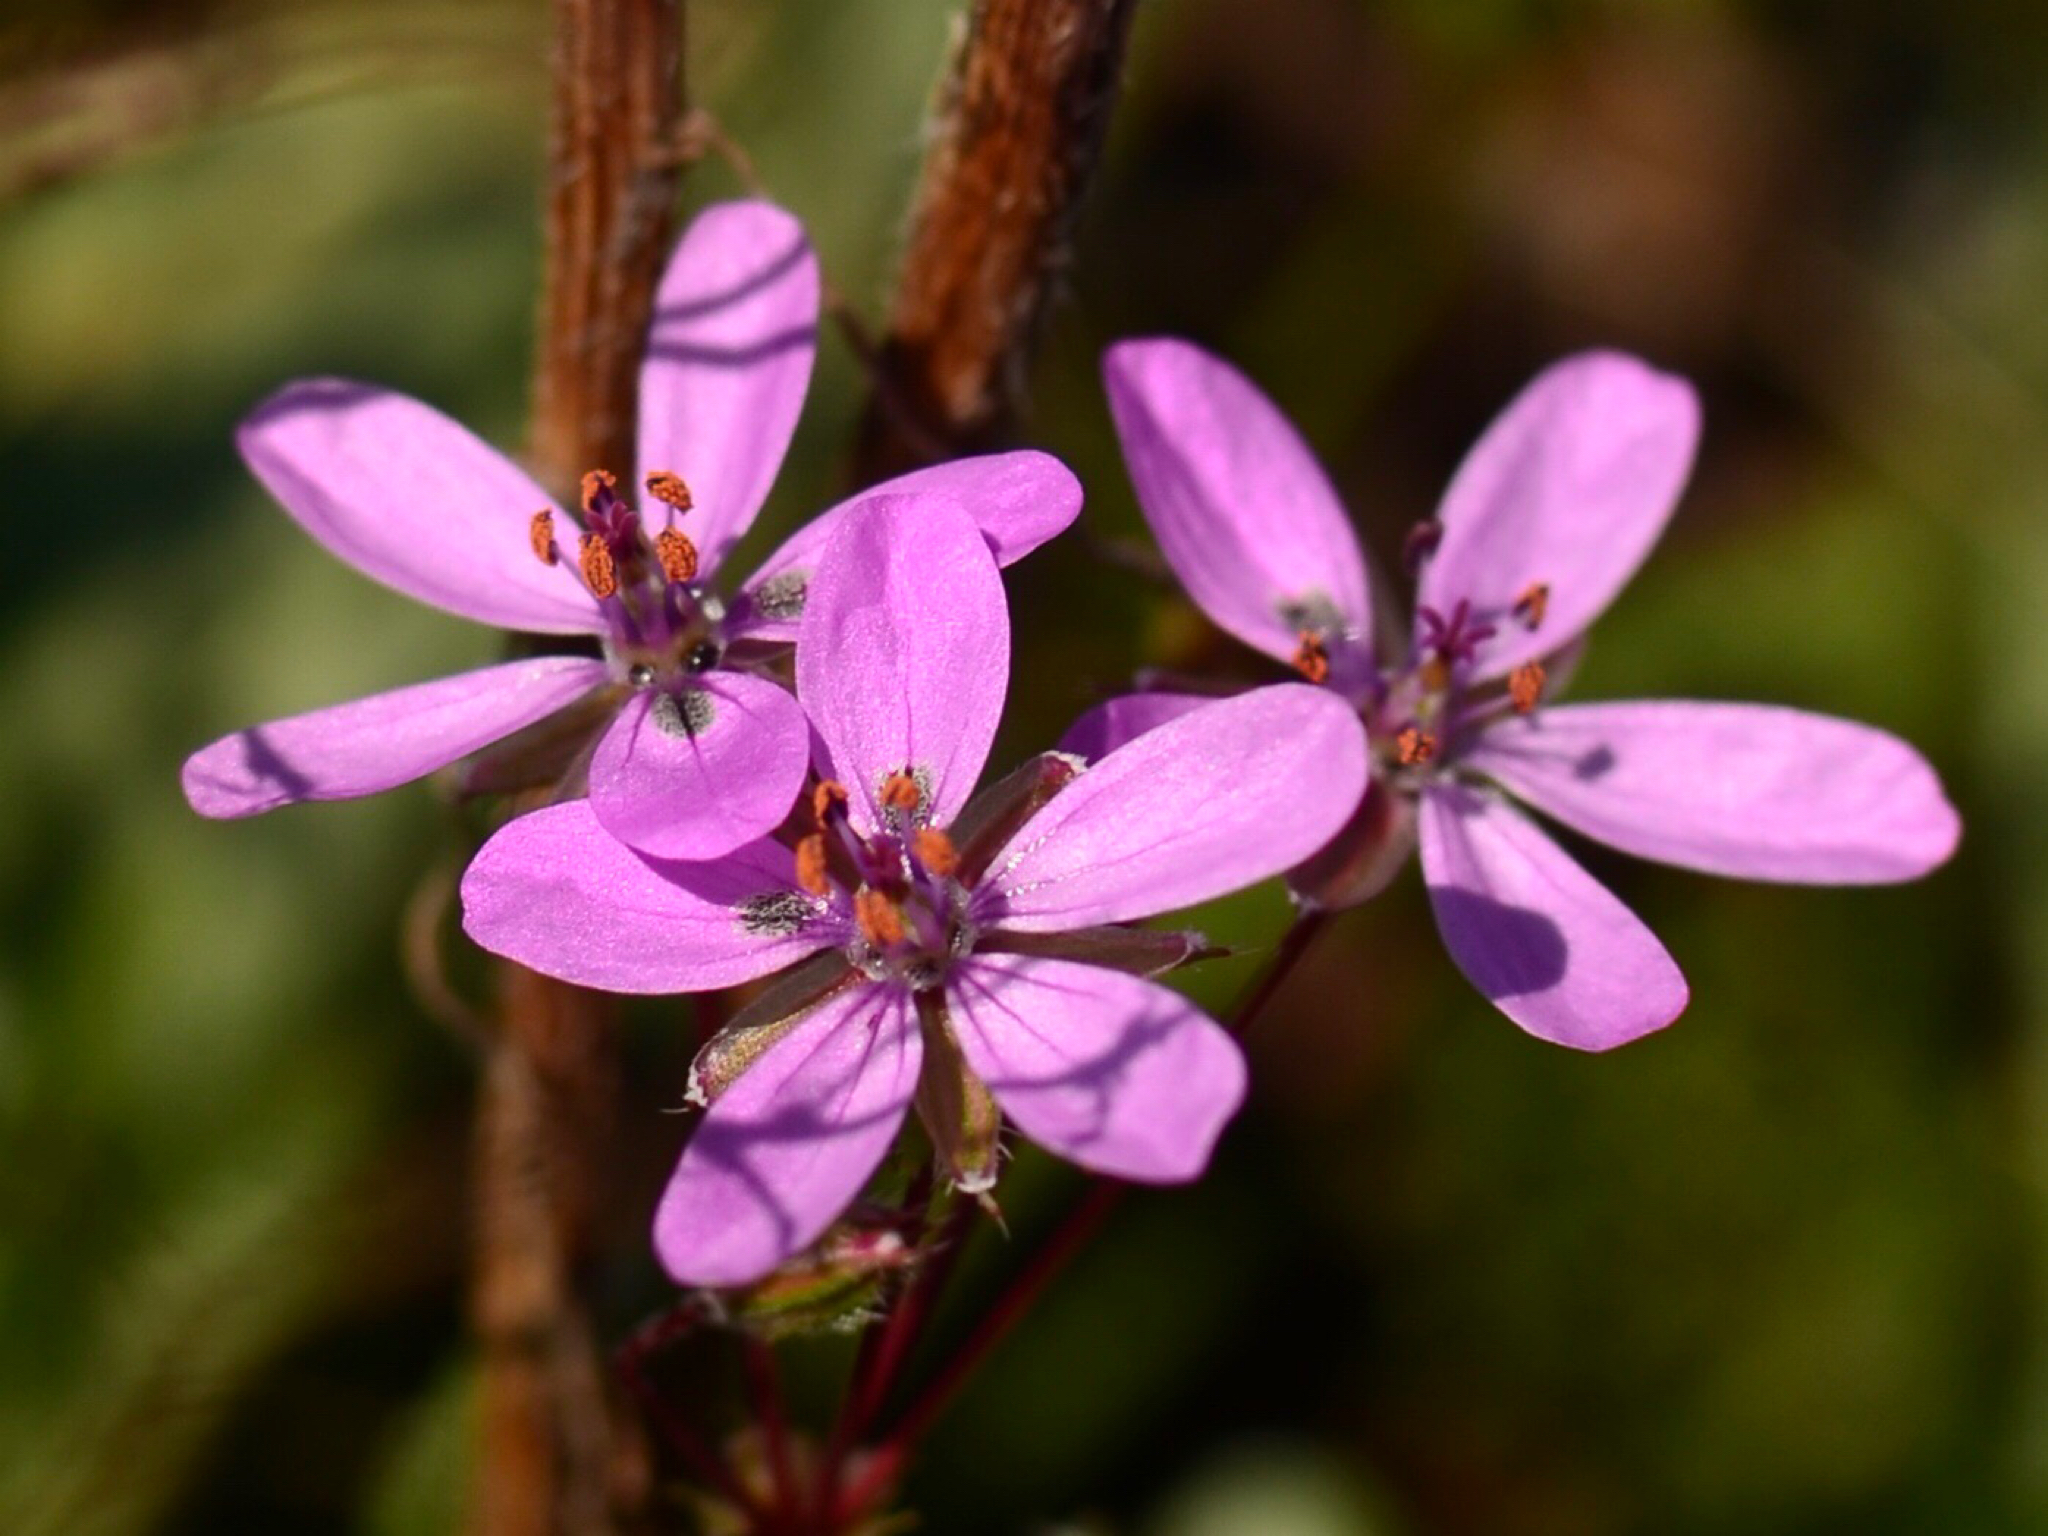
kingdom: Plantae
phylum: Tracheophyta
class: Magnoliopsida
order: Geraniales
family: Geraniaceae
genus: Erodium
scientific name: Erodium cicutarium
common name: Common stork's-bill
